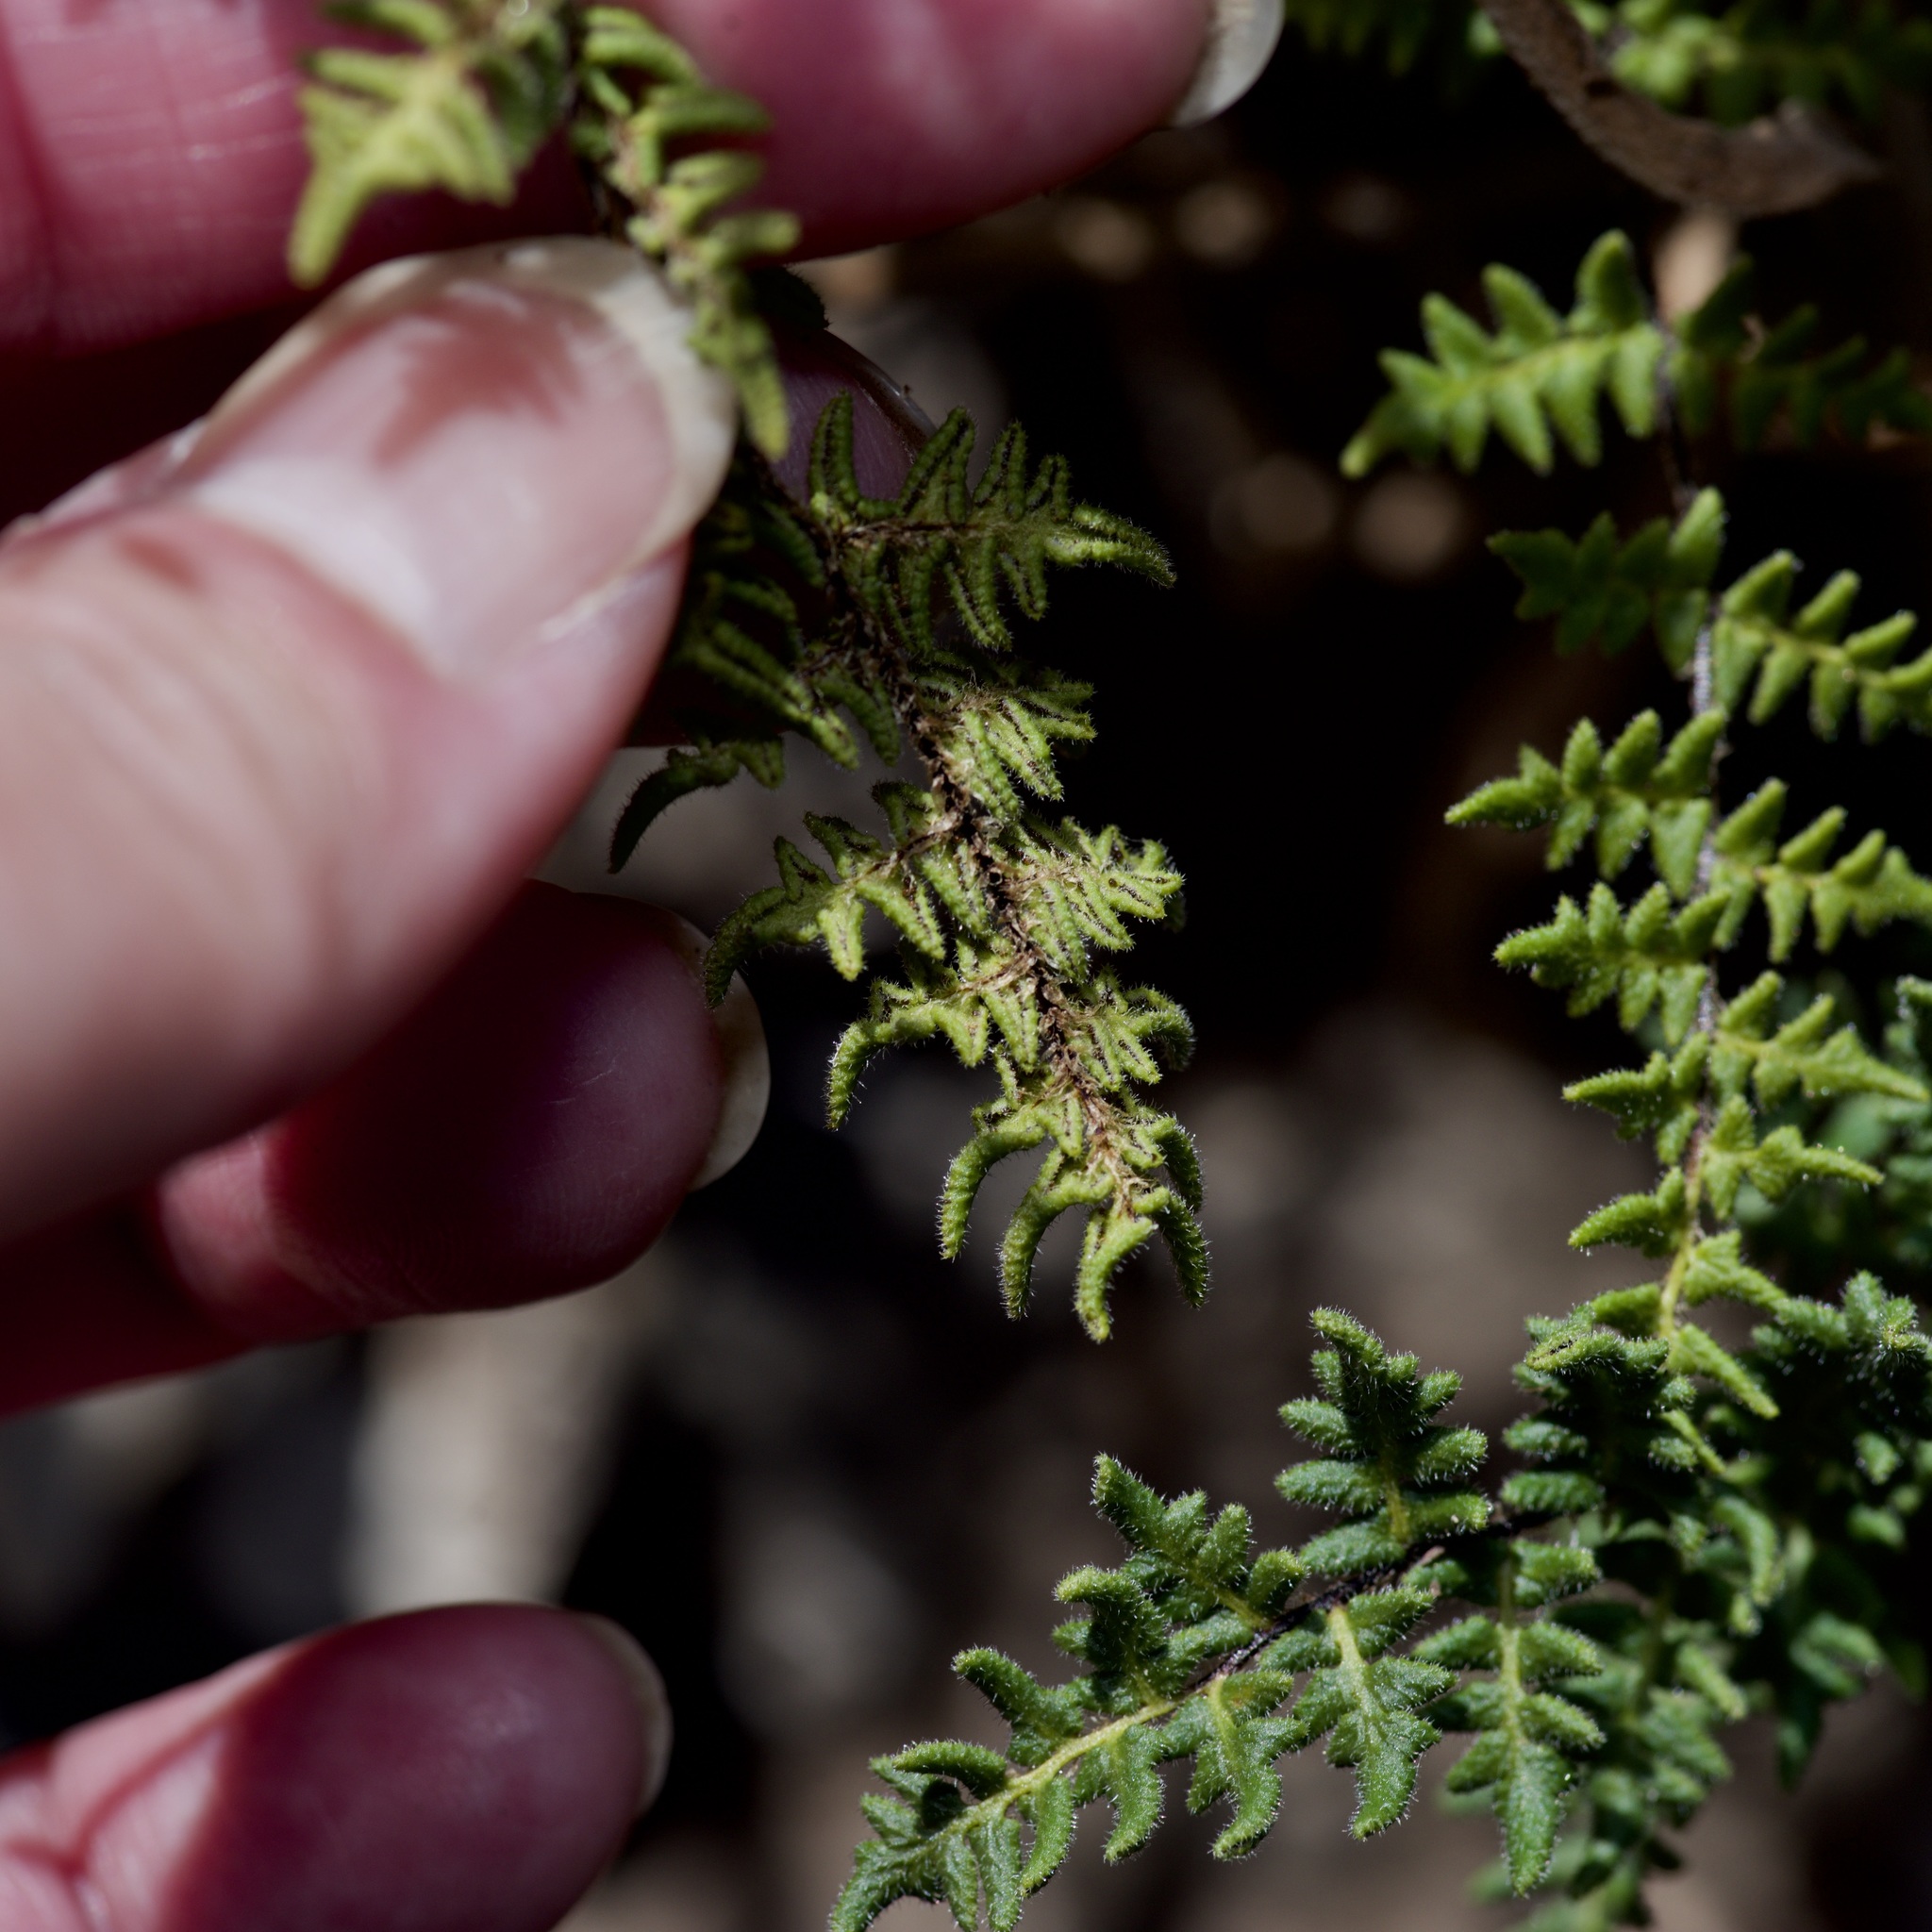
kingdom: Plantae
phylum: Tracheophyta
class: Polypodiopsida
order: Polypodiales
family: Pteridaceae
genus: Myriopteris
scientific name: Myriopteris scabra
